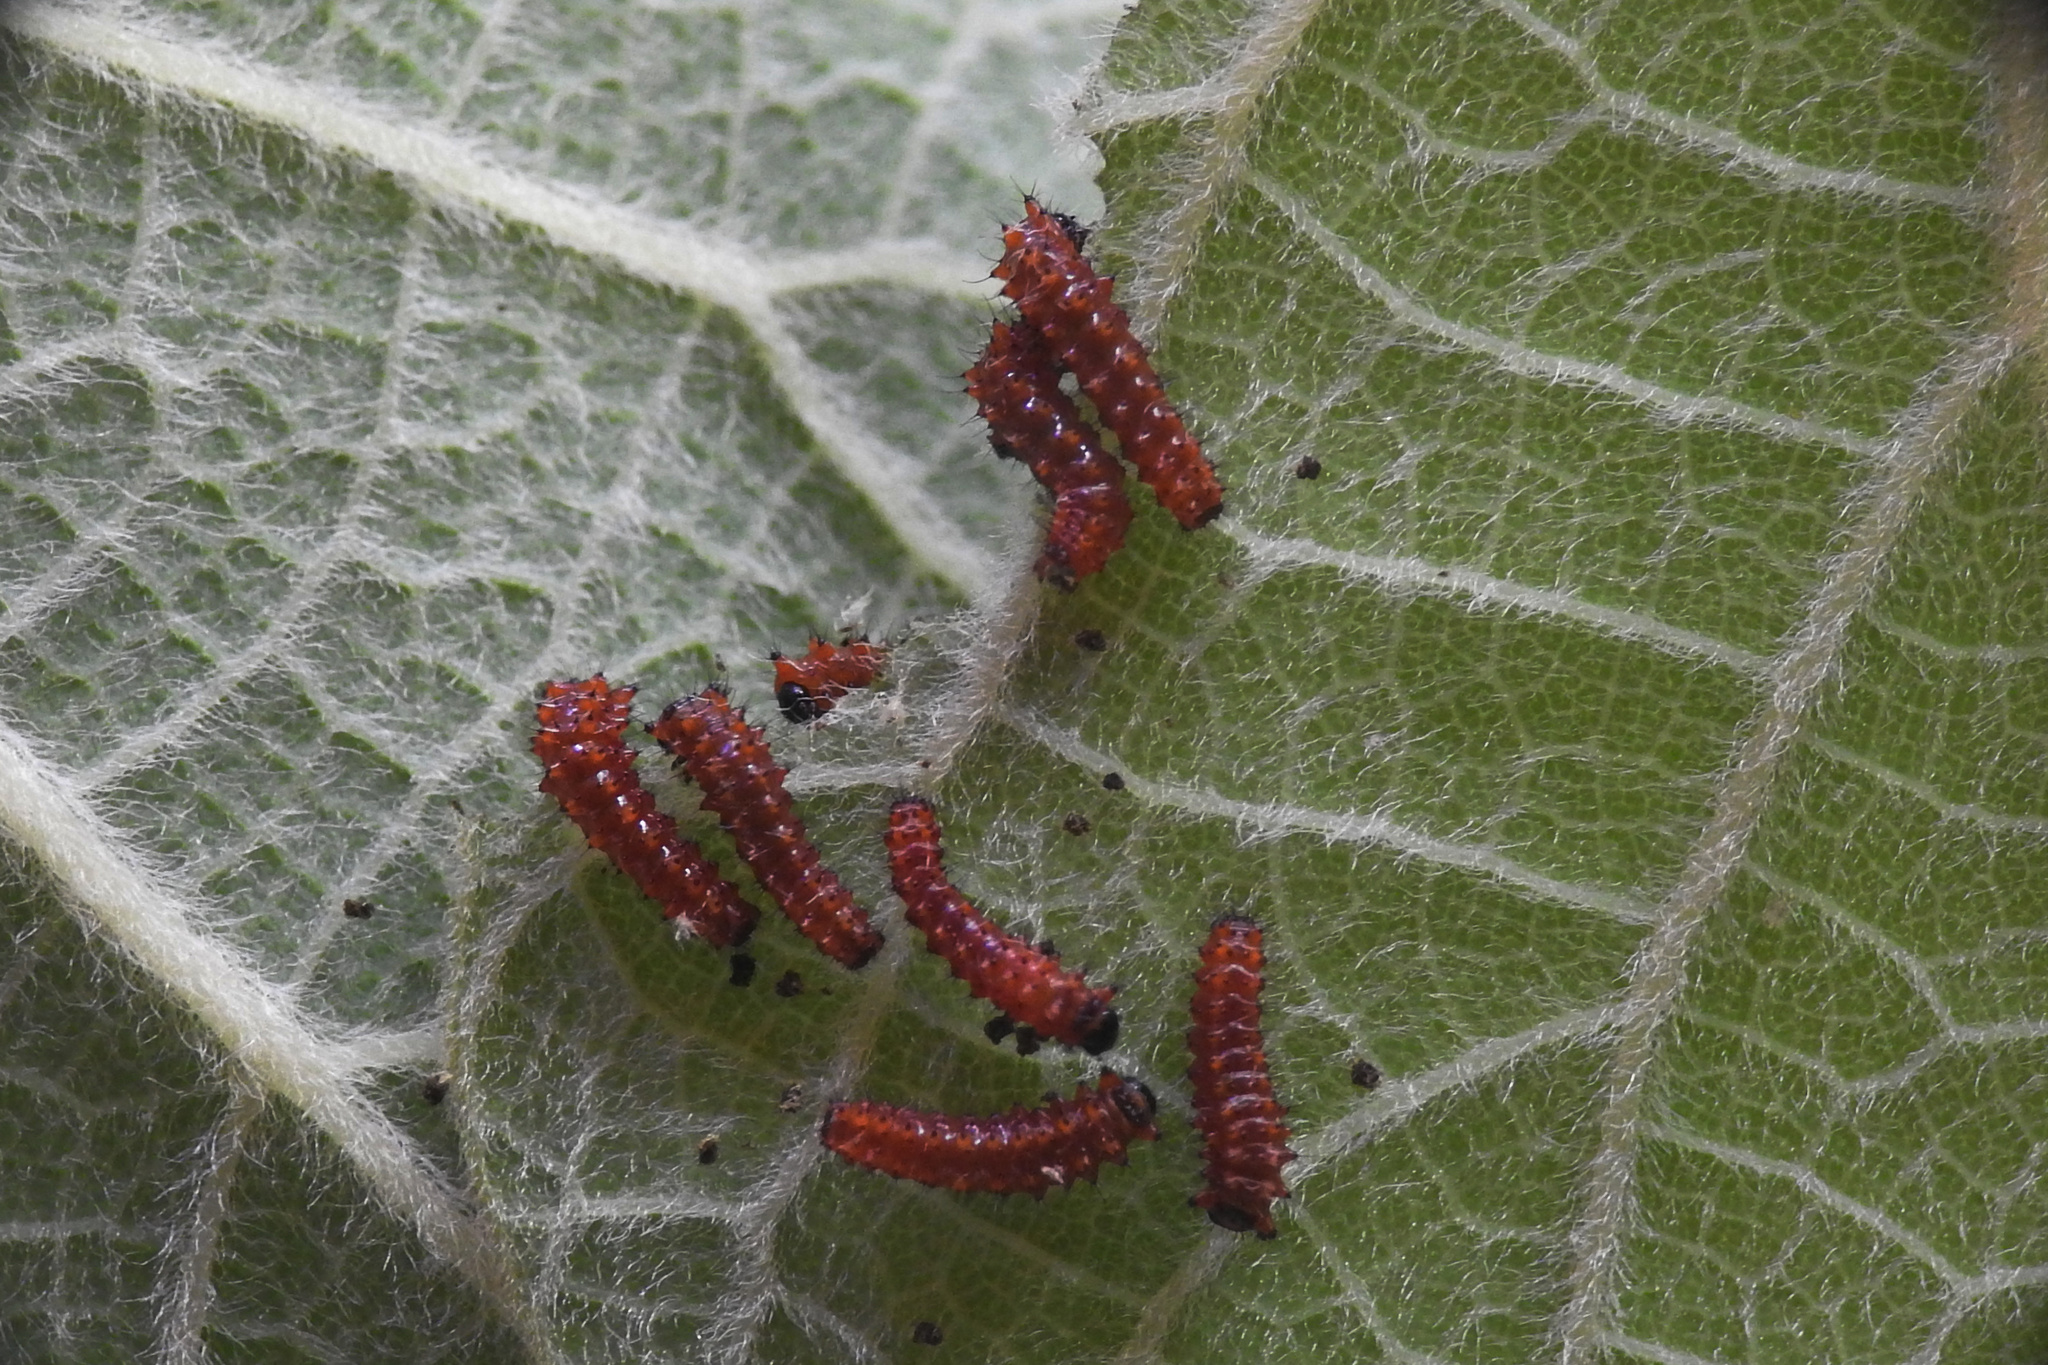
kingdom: Animalia
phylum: Arthropoda
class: Insecta
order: Lepidoptera
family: Papilionidae
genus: Battus
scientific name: Battus philenor
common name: Pipevine swallowtail
